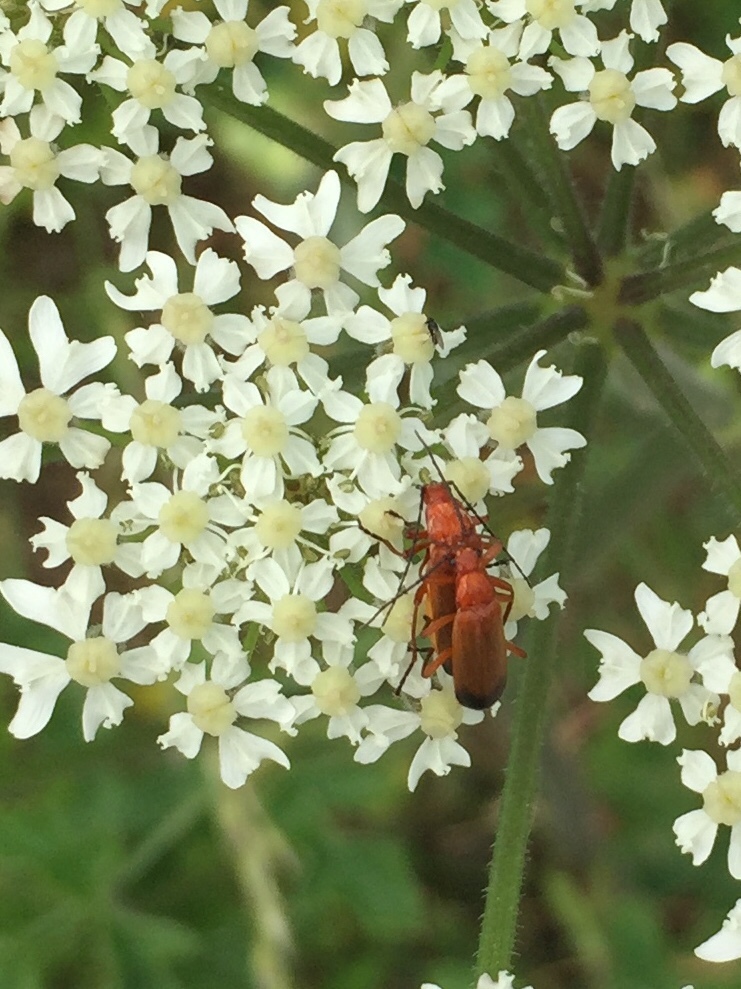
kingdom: Animalia
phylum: Arthropoda
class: Insecta
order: Coleoptera
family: Cantharidae
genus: Rhagonycha
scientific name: Rhagonycha fulva
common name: Common red soldier beetle
